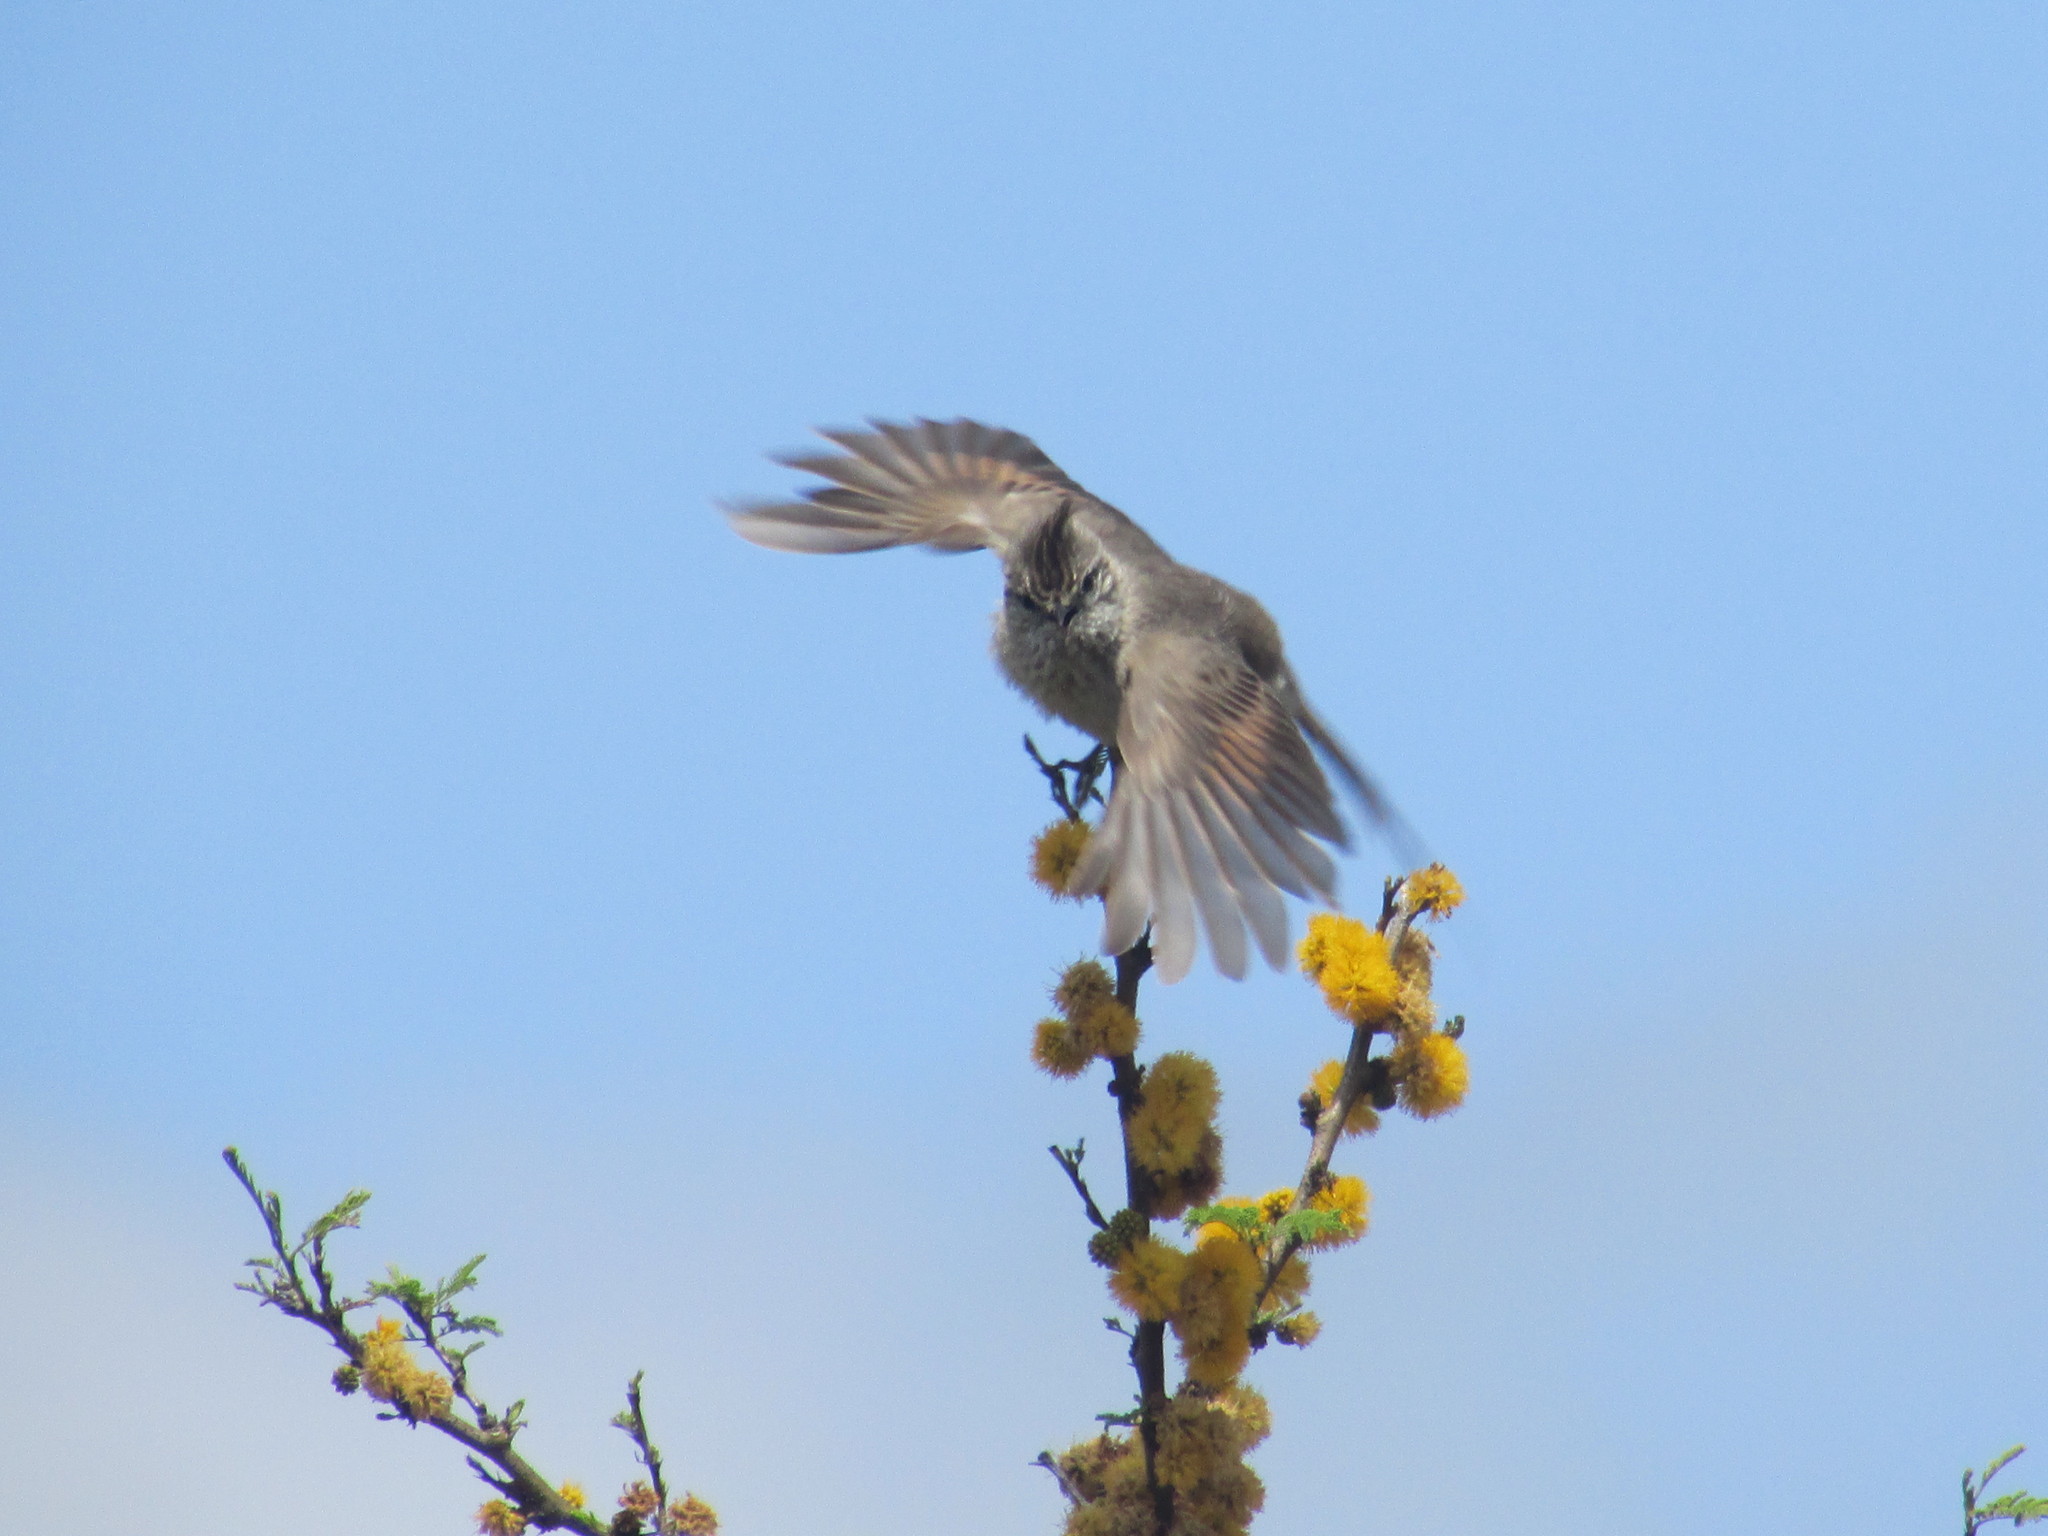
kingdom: Animalia
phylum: Chordata
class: Aves
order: Passeriformes
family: Furnariidae
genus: Leptasthenura
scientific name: Leptasthenura platensis
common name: Tufted tit-spinetail
